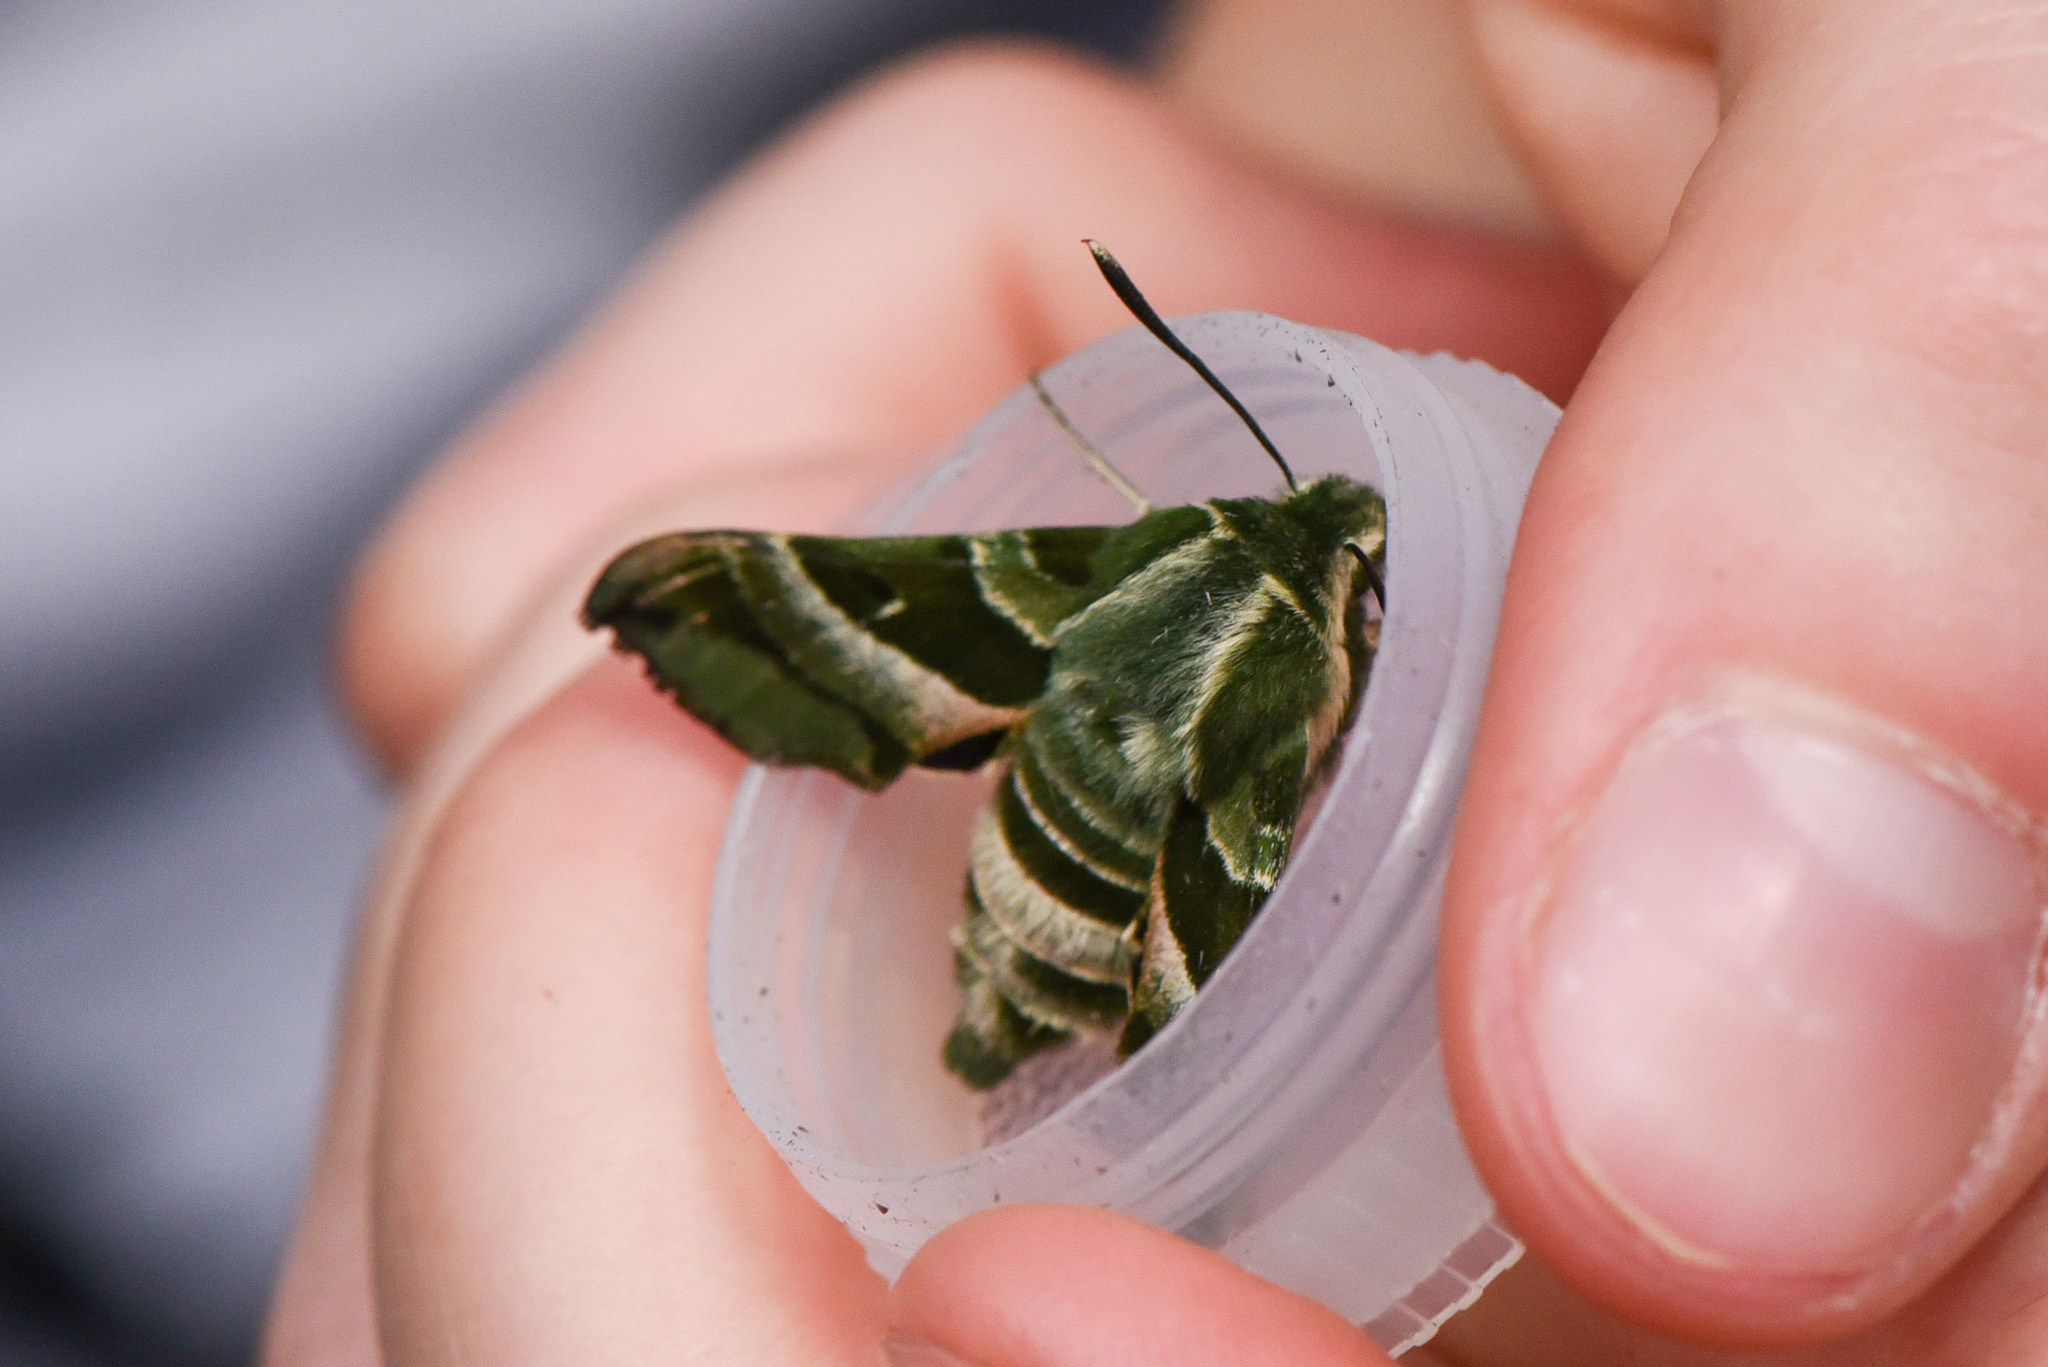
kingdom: Animalia
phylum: Arthropoda
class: Insecta
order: Lepidoptera
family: Sphingidae
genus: Proserpinus
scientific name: Proserpinus clarkiae
